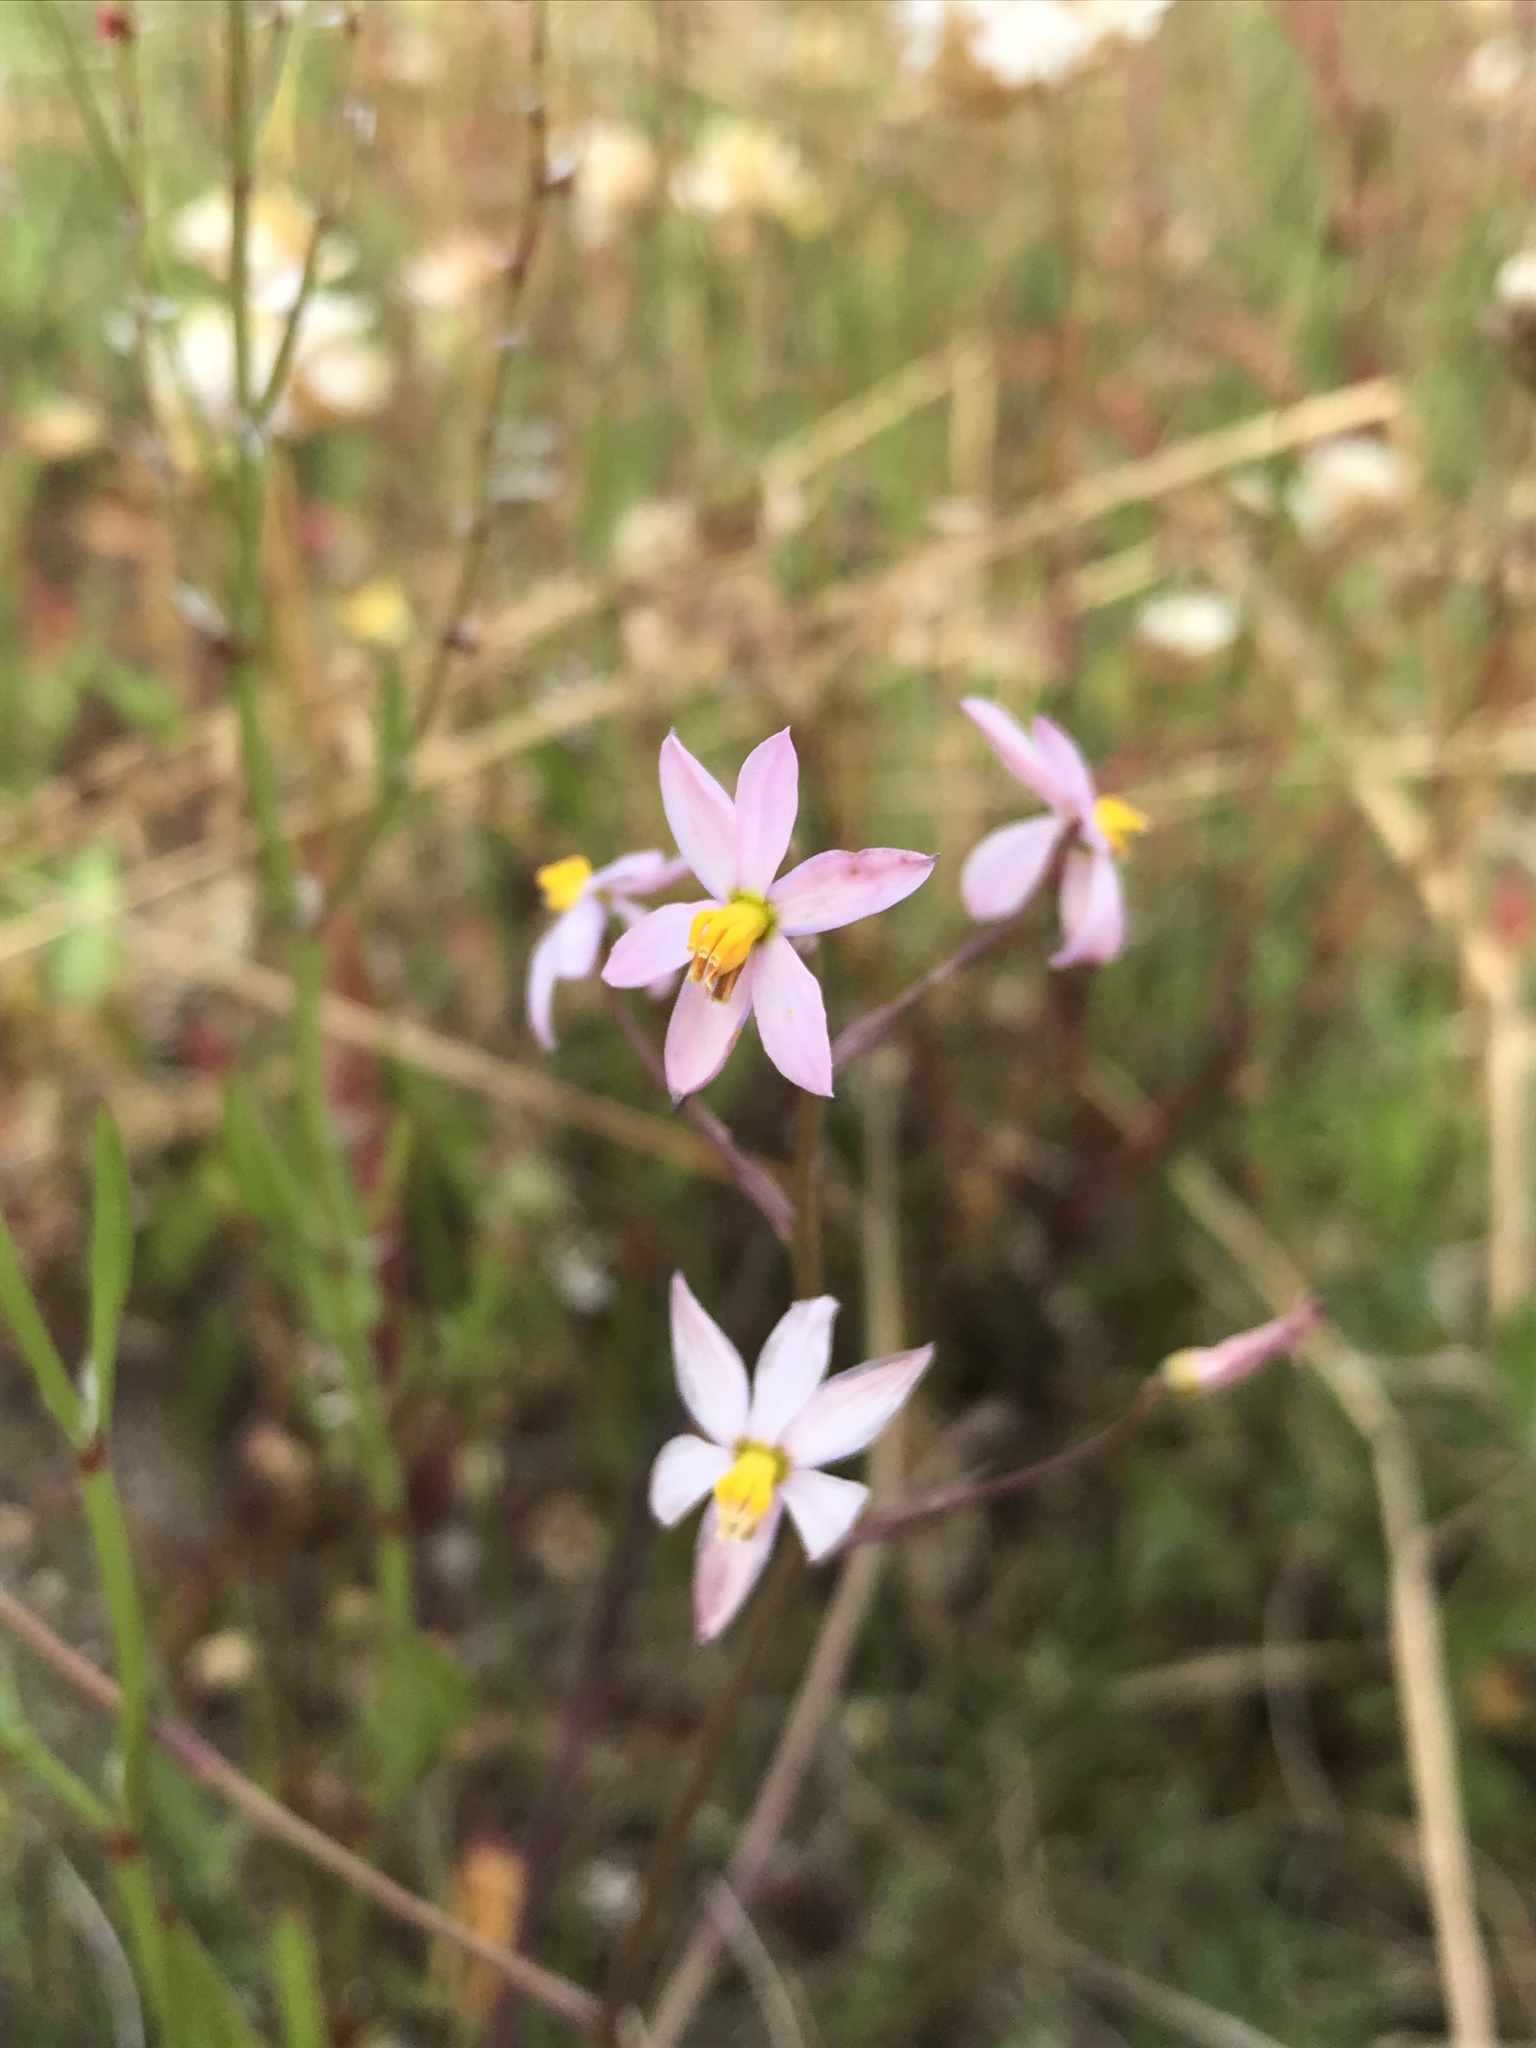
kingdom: Plantae
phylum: Tracheophyta
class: Liliopsida
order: Asparagales
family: Tecophilaeaceae
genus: Cyanella
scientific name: Cyanella hyacinthoides
